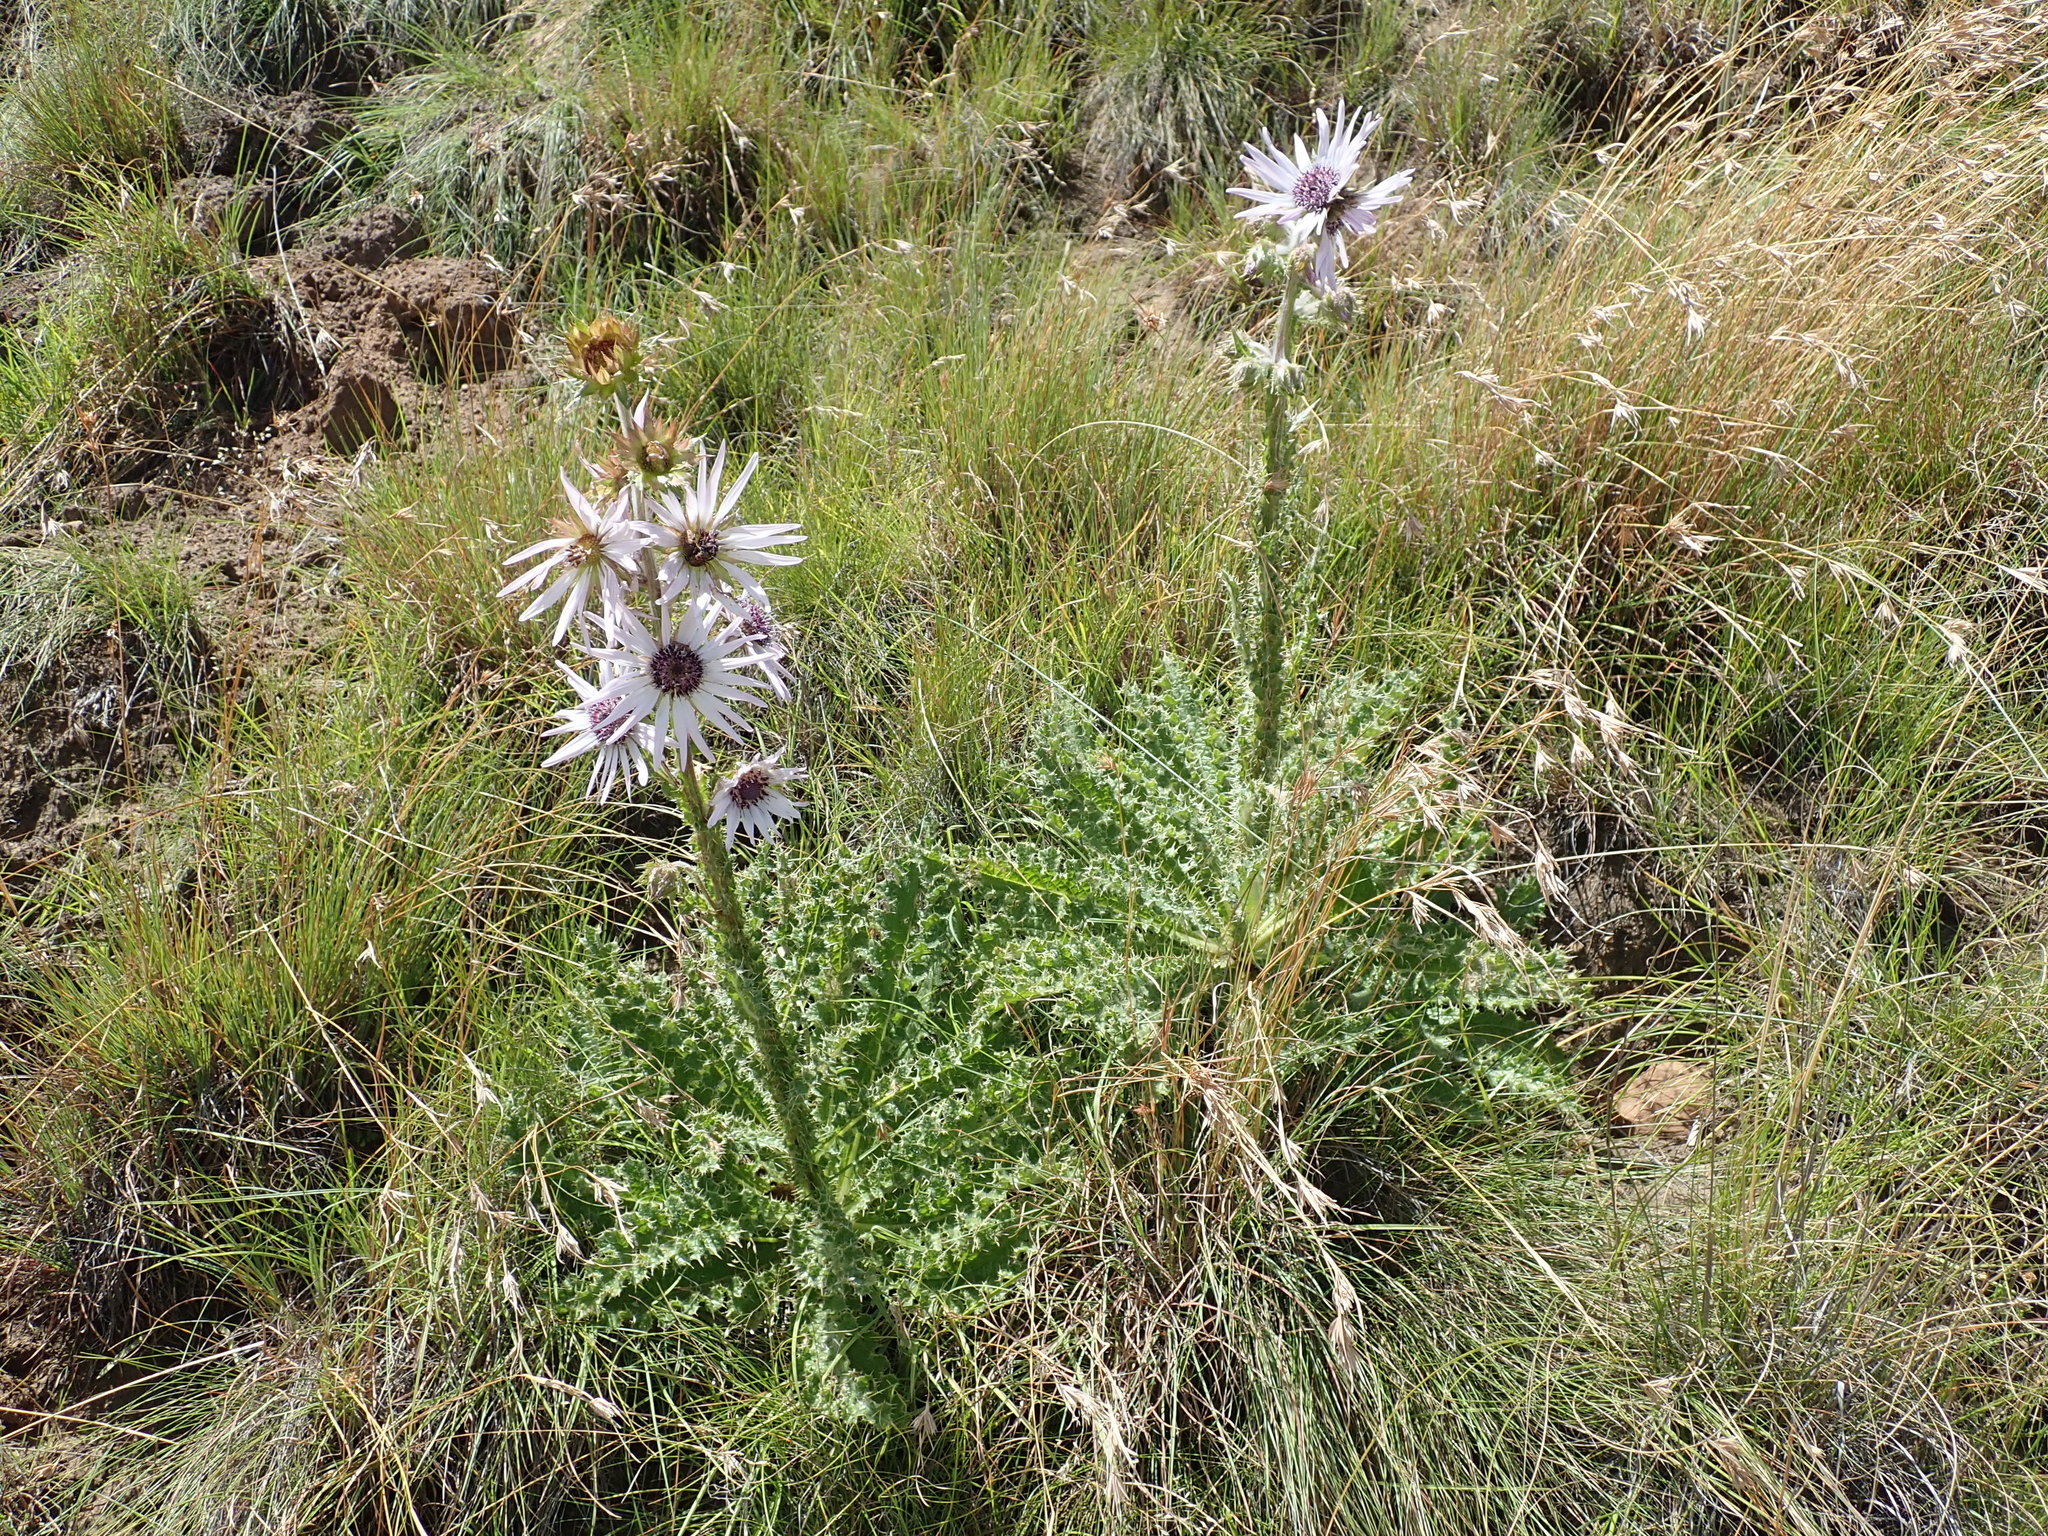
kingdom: Plantae
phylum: Tracheophyta
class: Magnoliopsida
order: Asterales
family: Asteraceae
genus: Berkheya
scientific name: Berkheya purpurea
